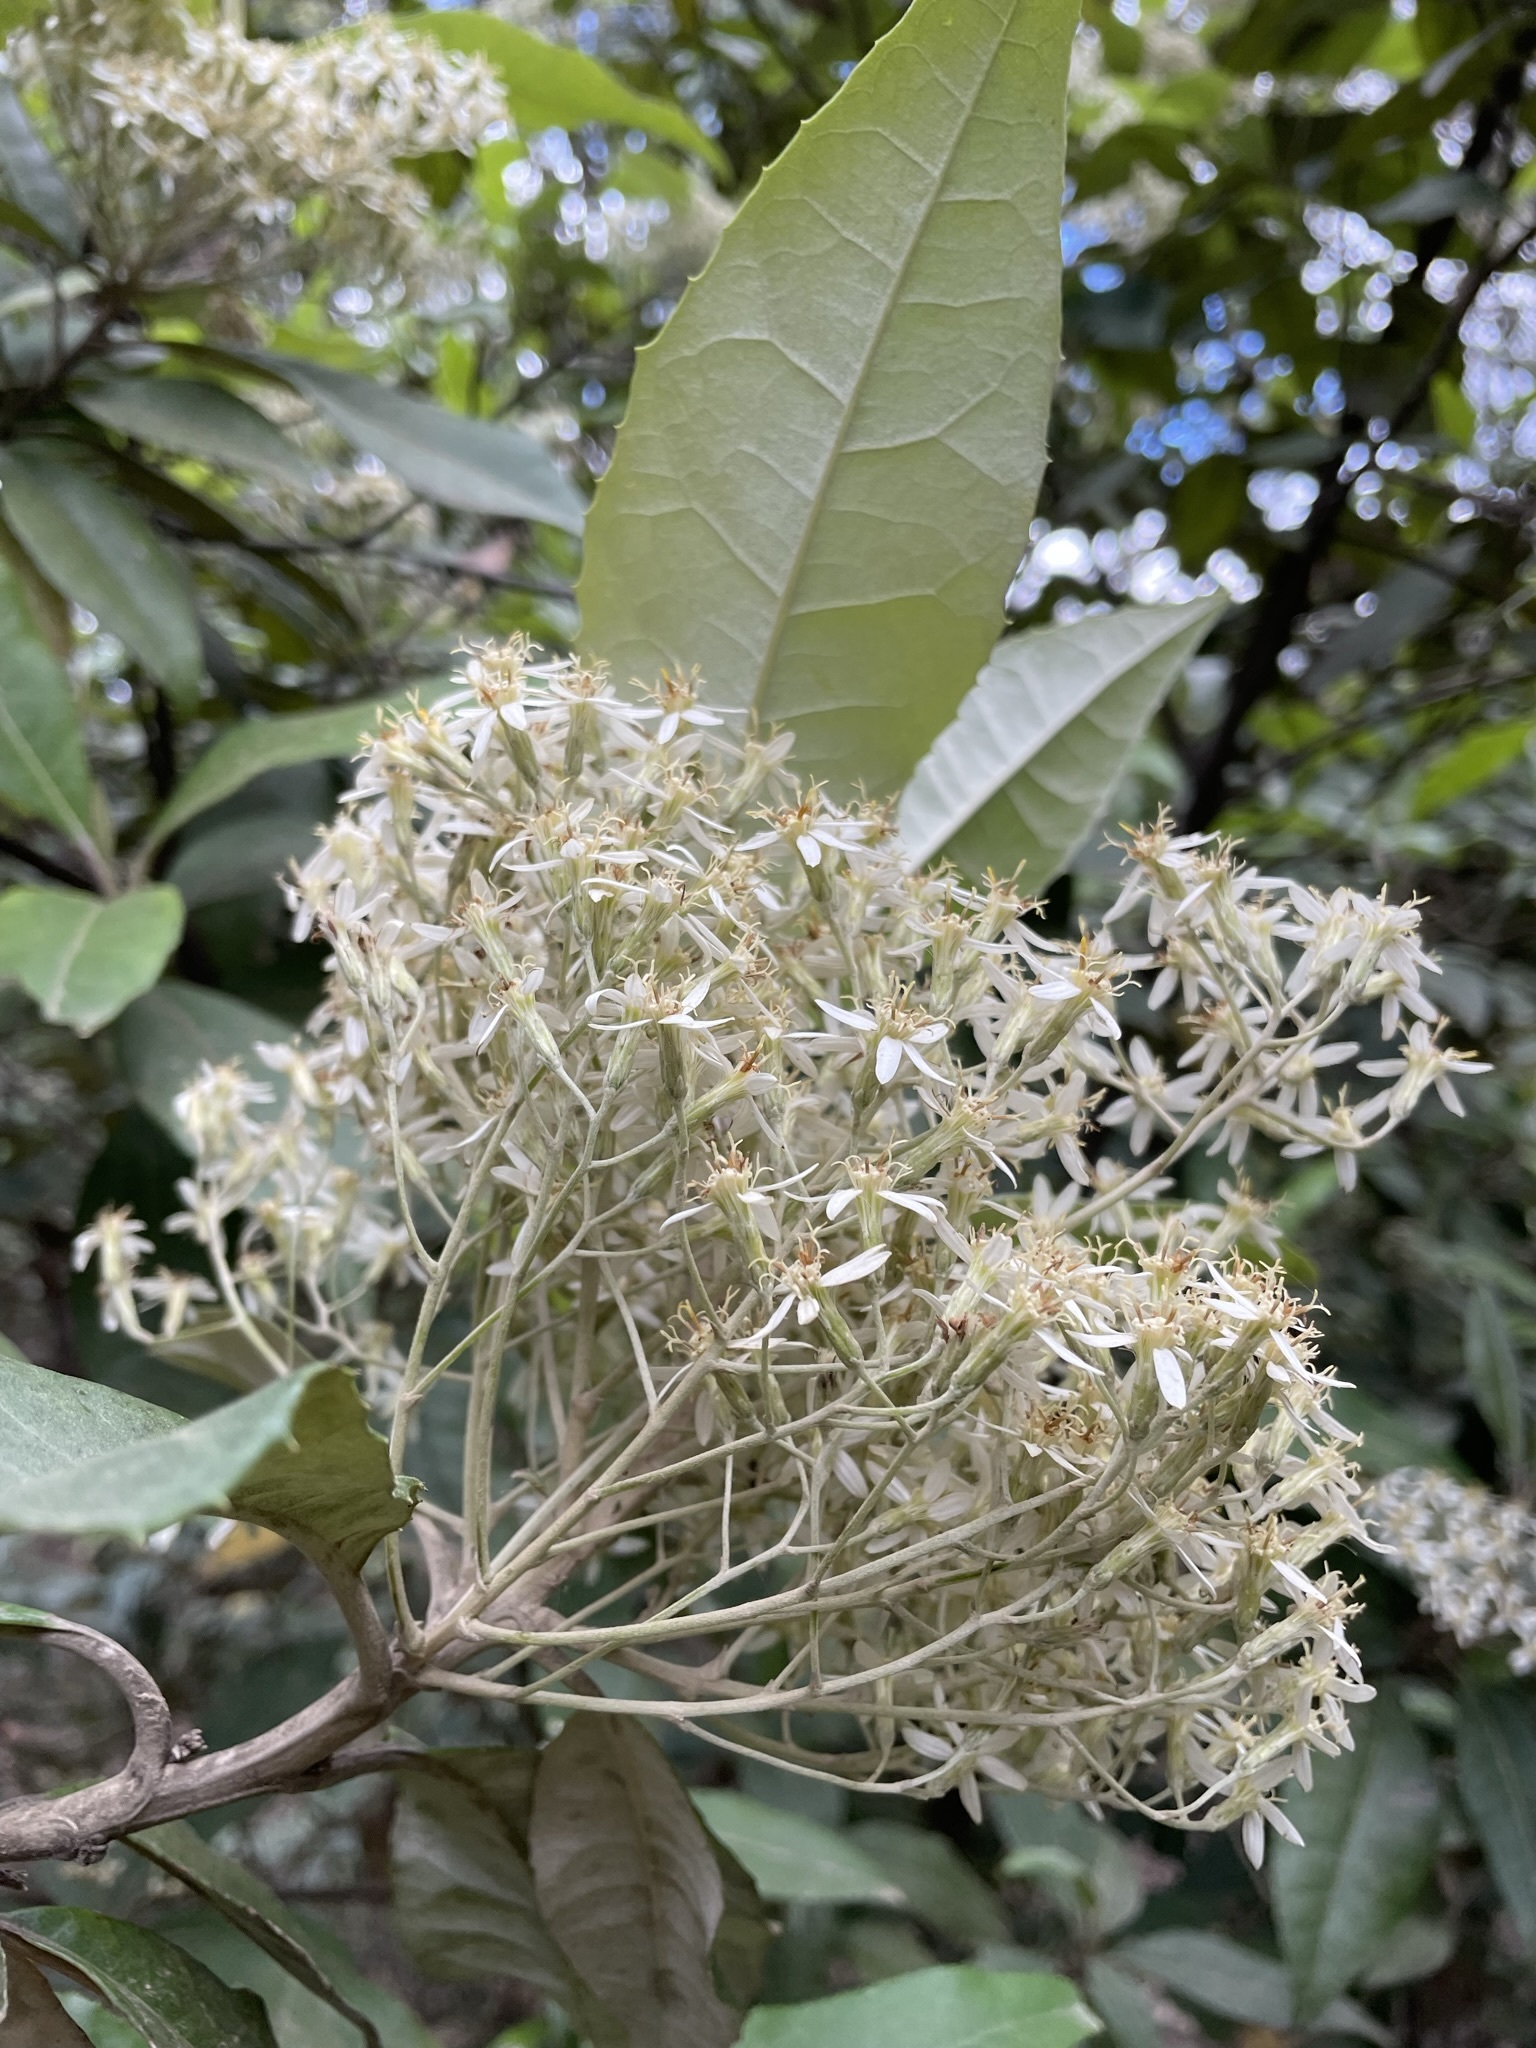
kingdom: Plantae
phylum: Tracheophyta
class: Magnoliopsida
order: Asterales
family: Asteraceae
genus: Olearia
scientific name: Olearia argophylla
